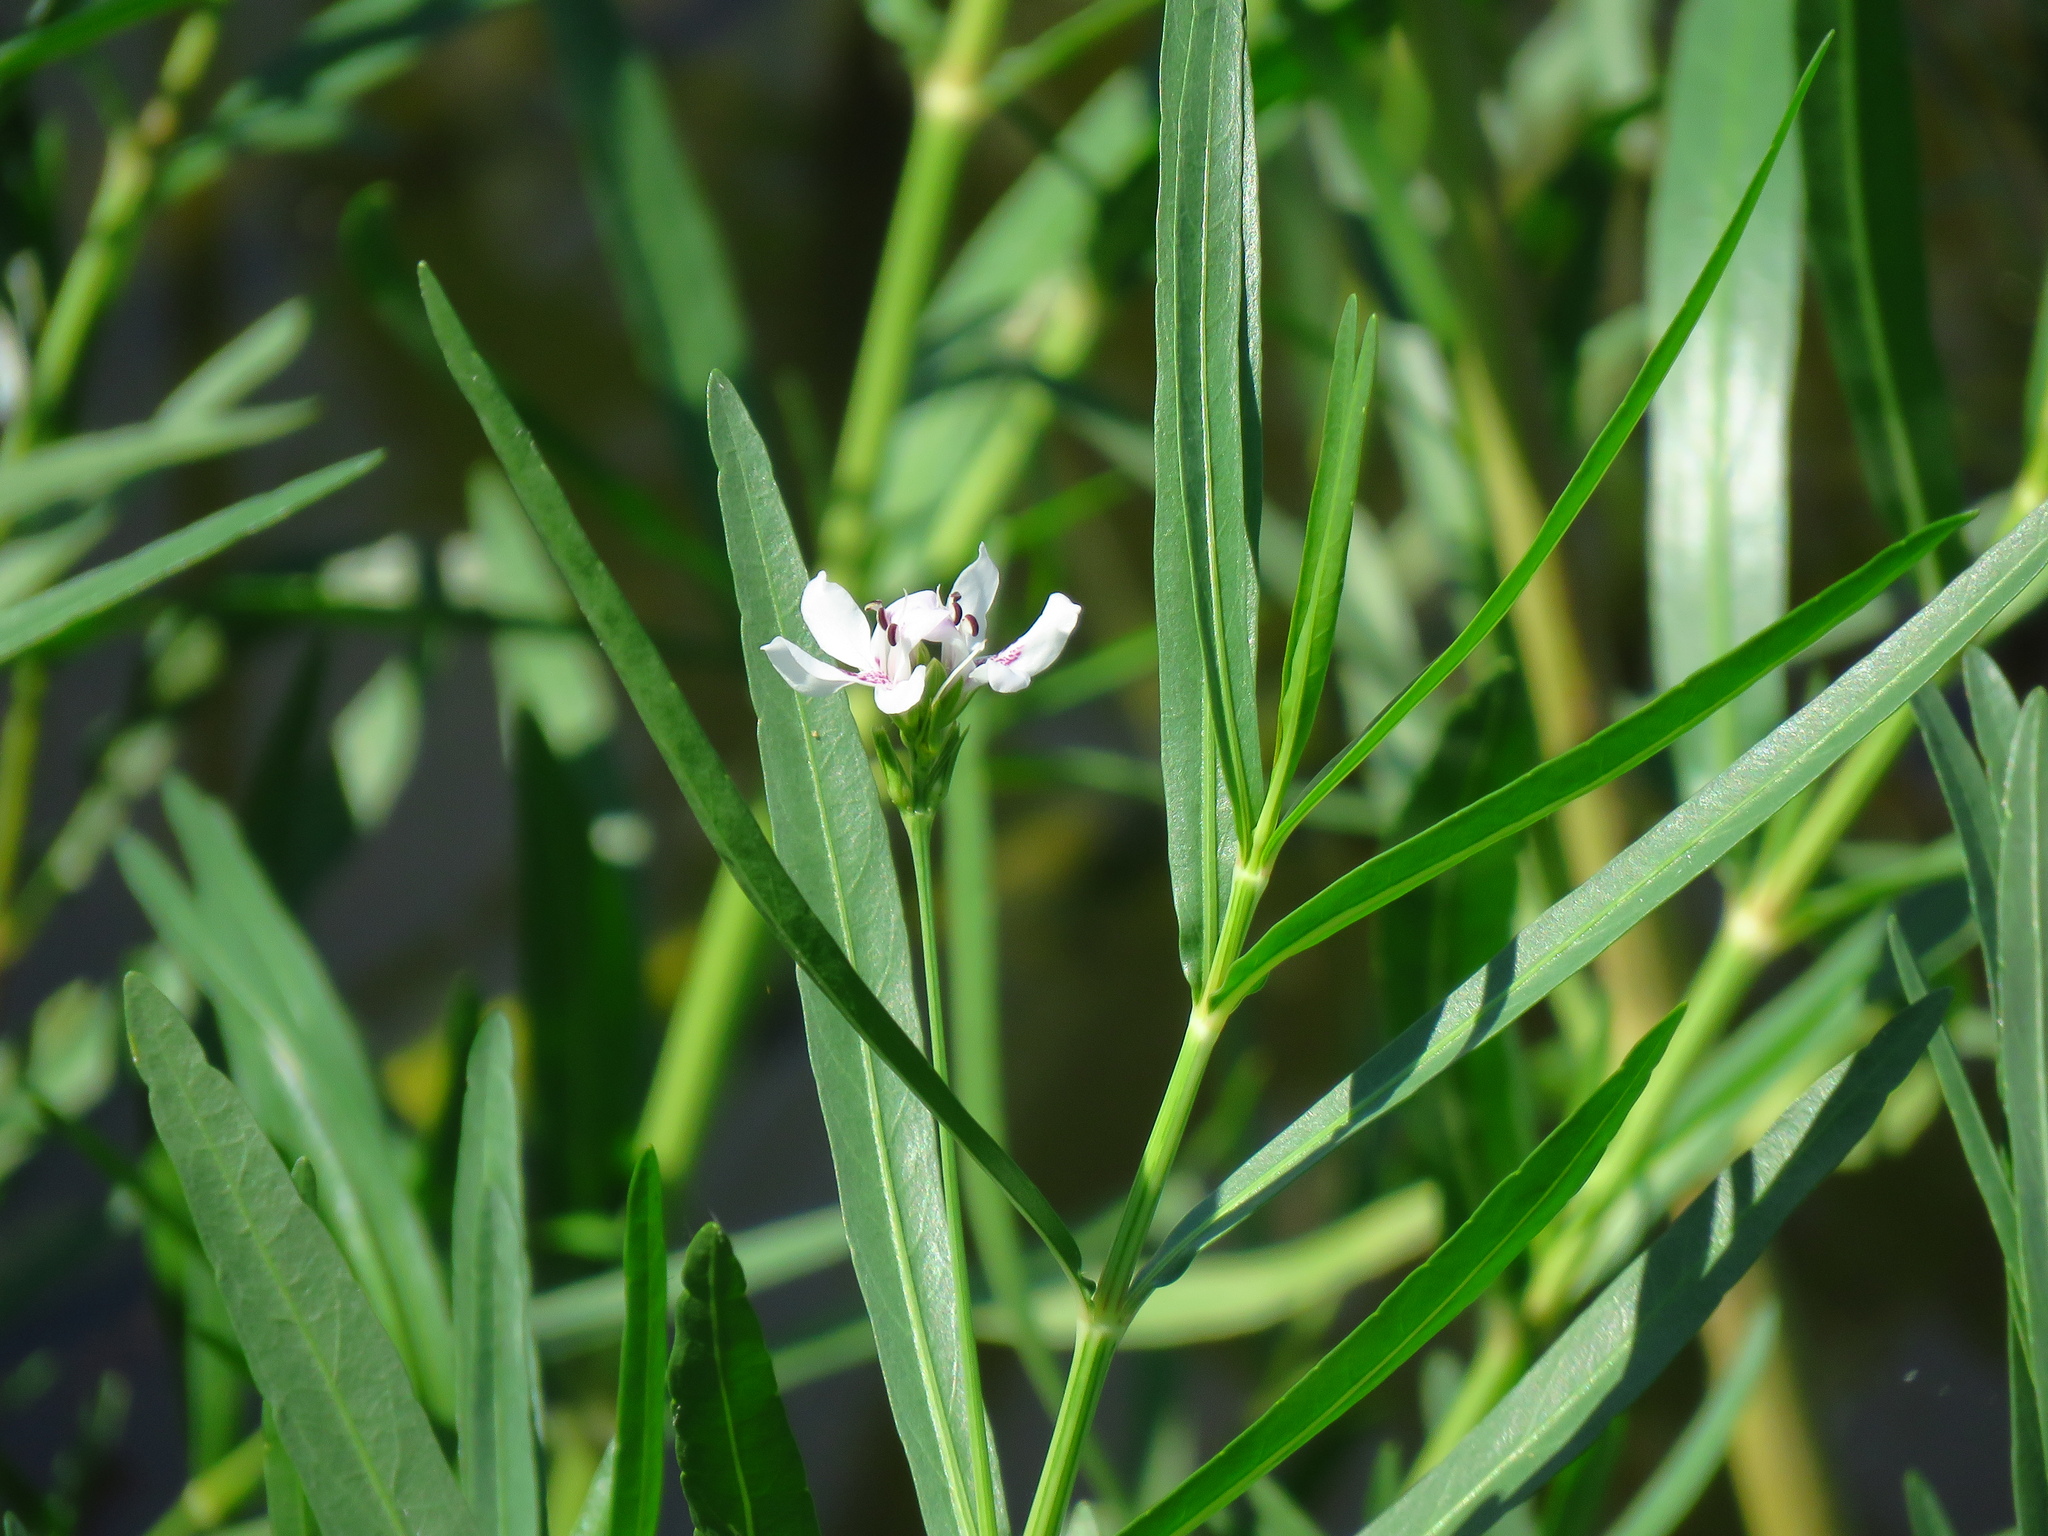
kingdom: Plantae
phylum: Tracheophyta
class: Magnoliopsida
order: Lamiales
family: Acanthaceae
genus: Dianthera
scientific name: Dianthera americana
